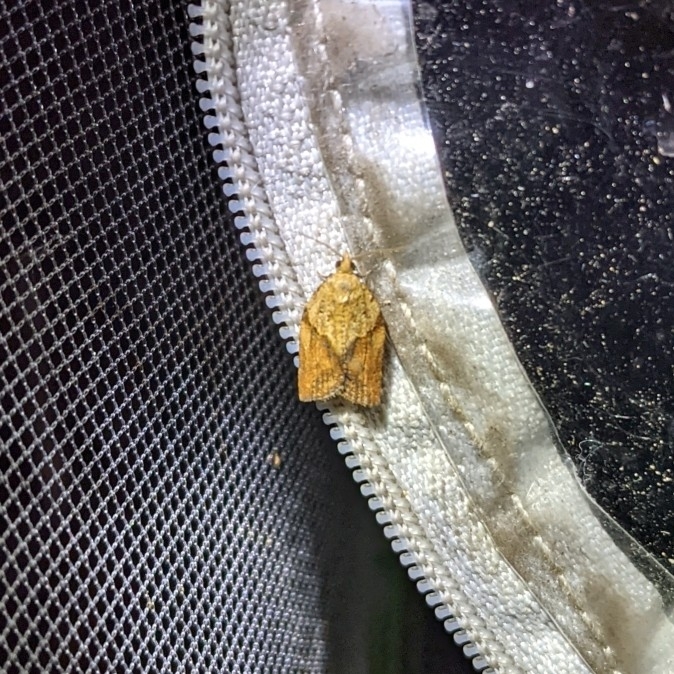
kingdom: Animalia
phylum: Arthropoda
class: Insecta
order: Lepidoptera
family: Tortricidae
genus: Epiphyas
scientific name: Epiphyas postvittana
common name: Light brown apple moth
